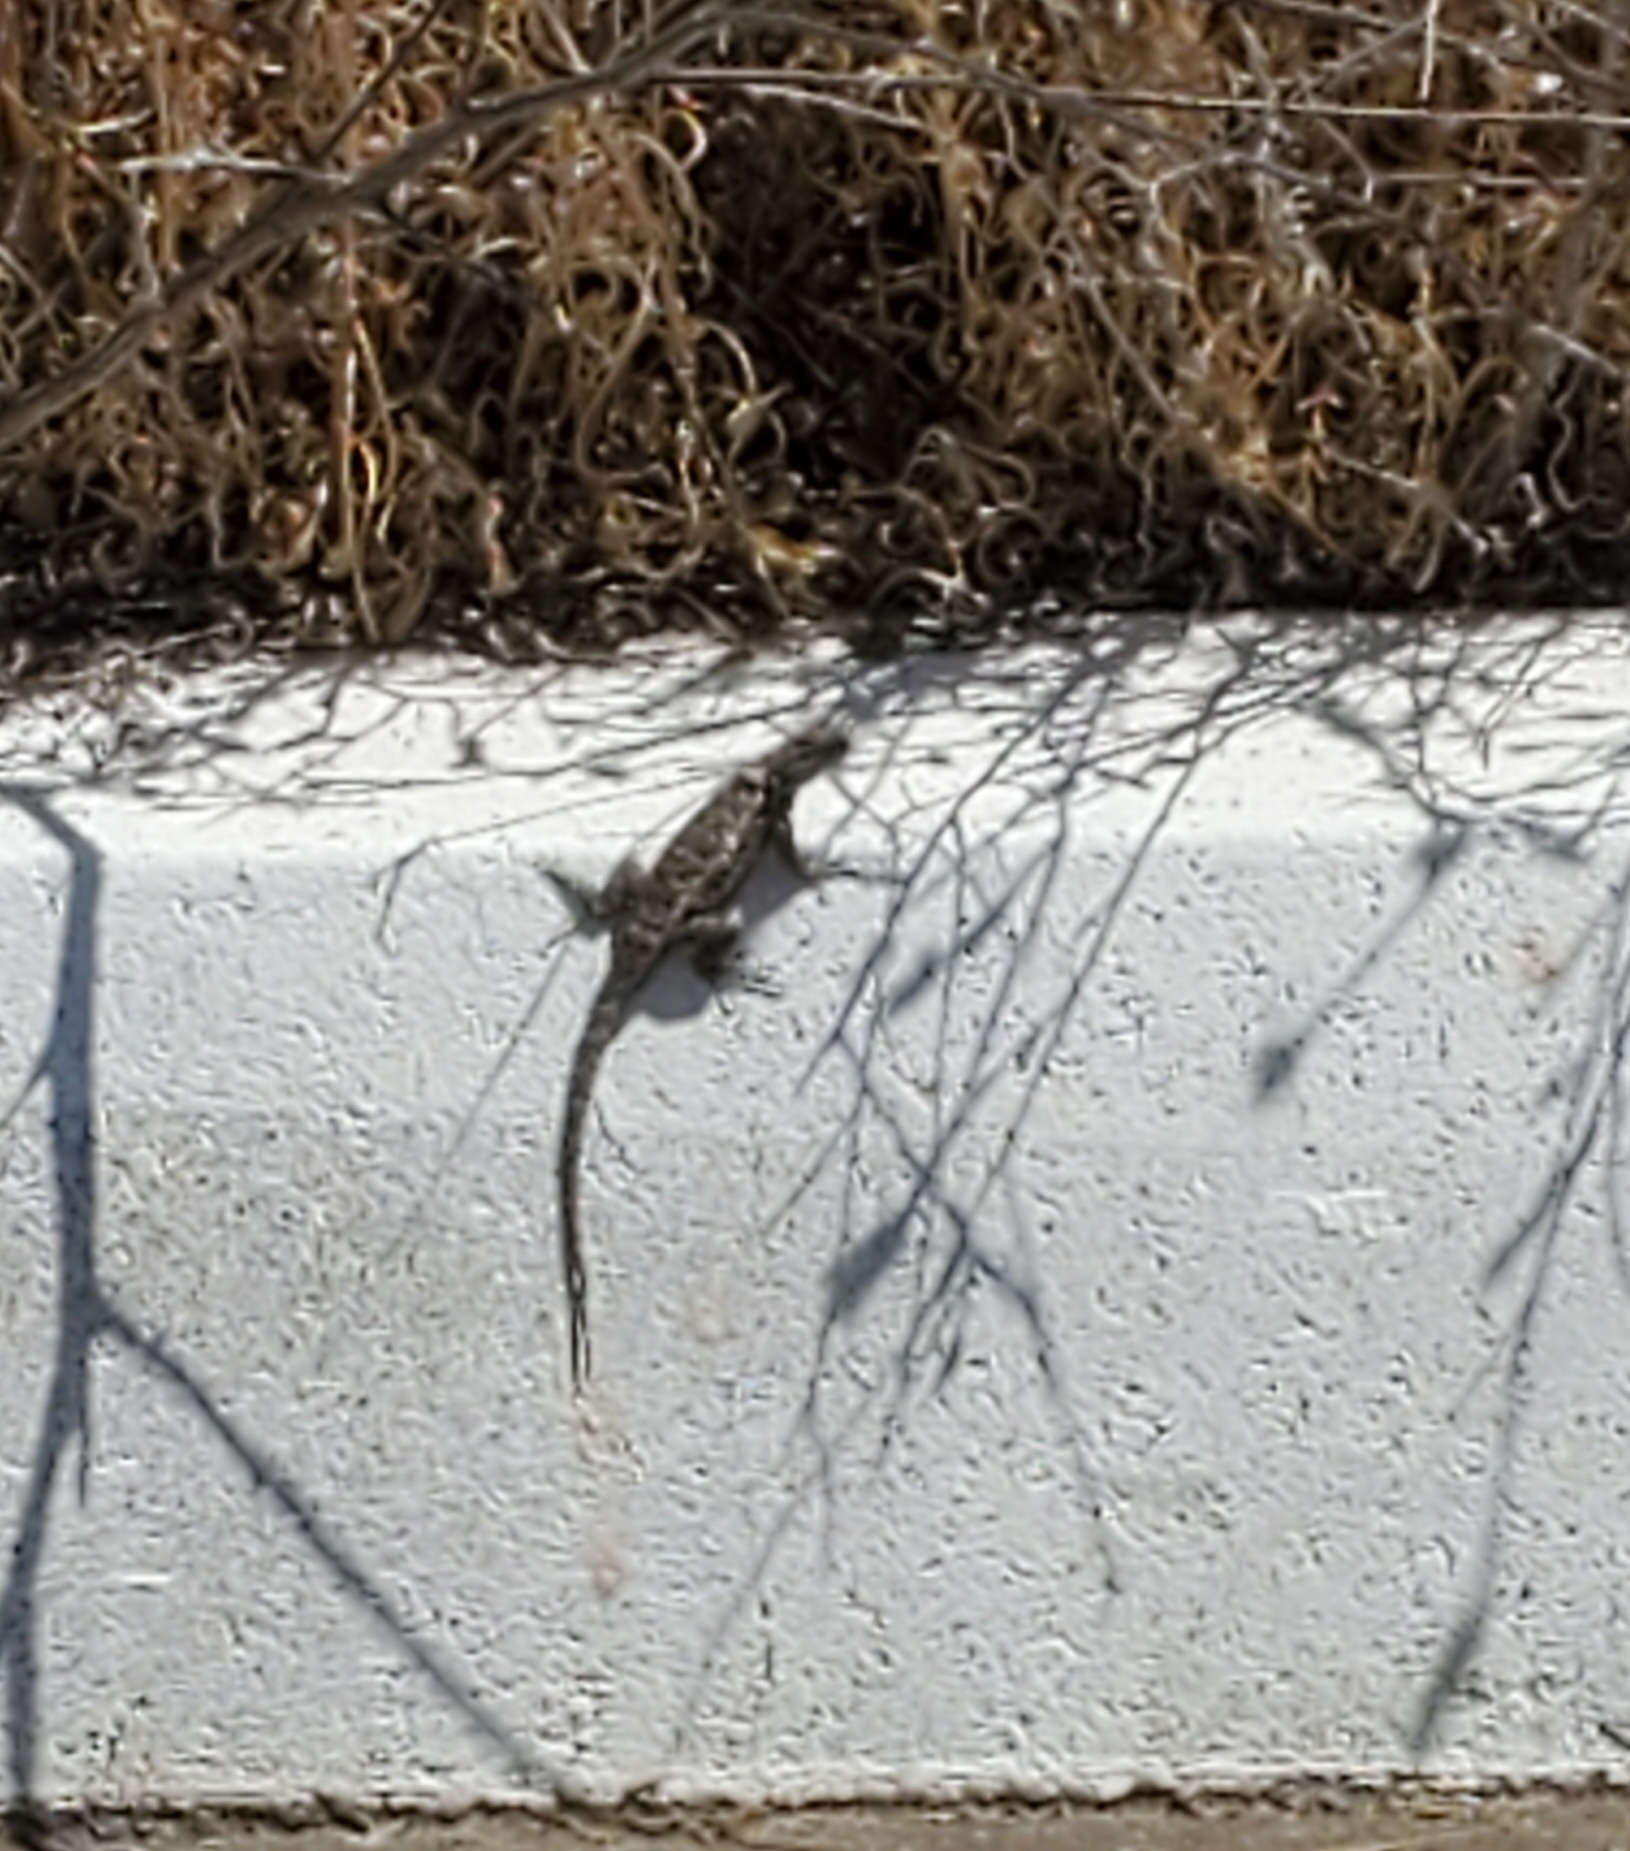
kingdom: Animalia
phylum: Chordata
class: Squamata
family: Phrynosomatidae
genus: Sceloporus
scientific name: Sceloporus occidentalis
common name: Western fence lizard
